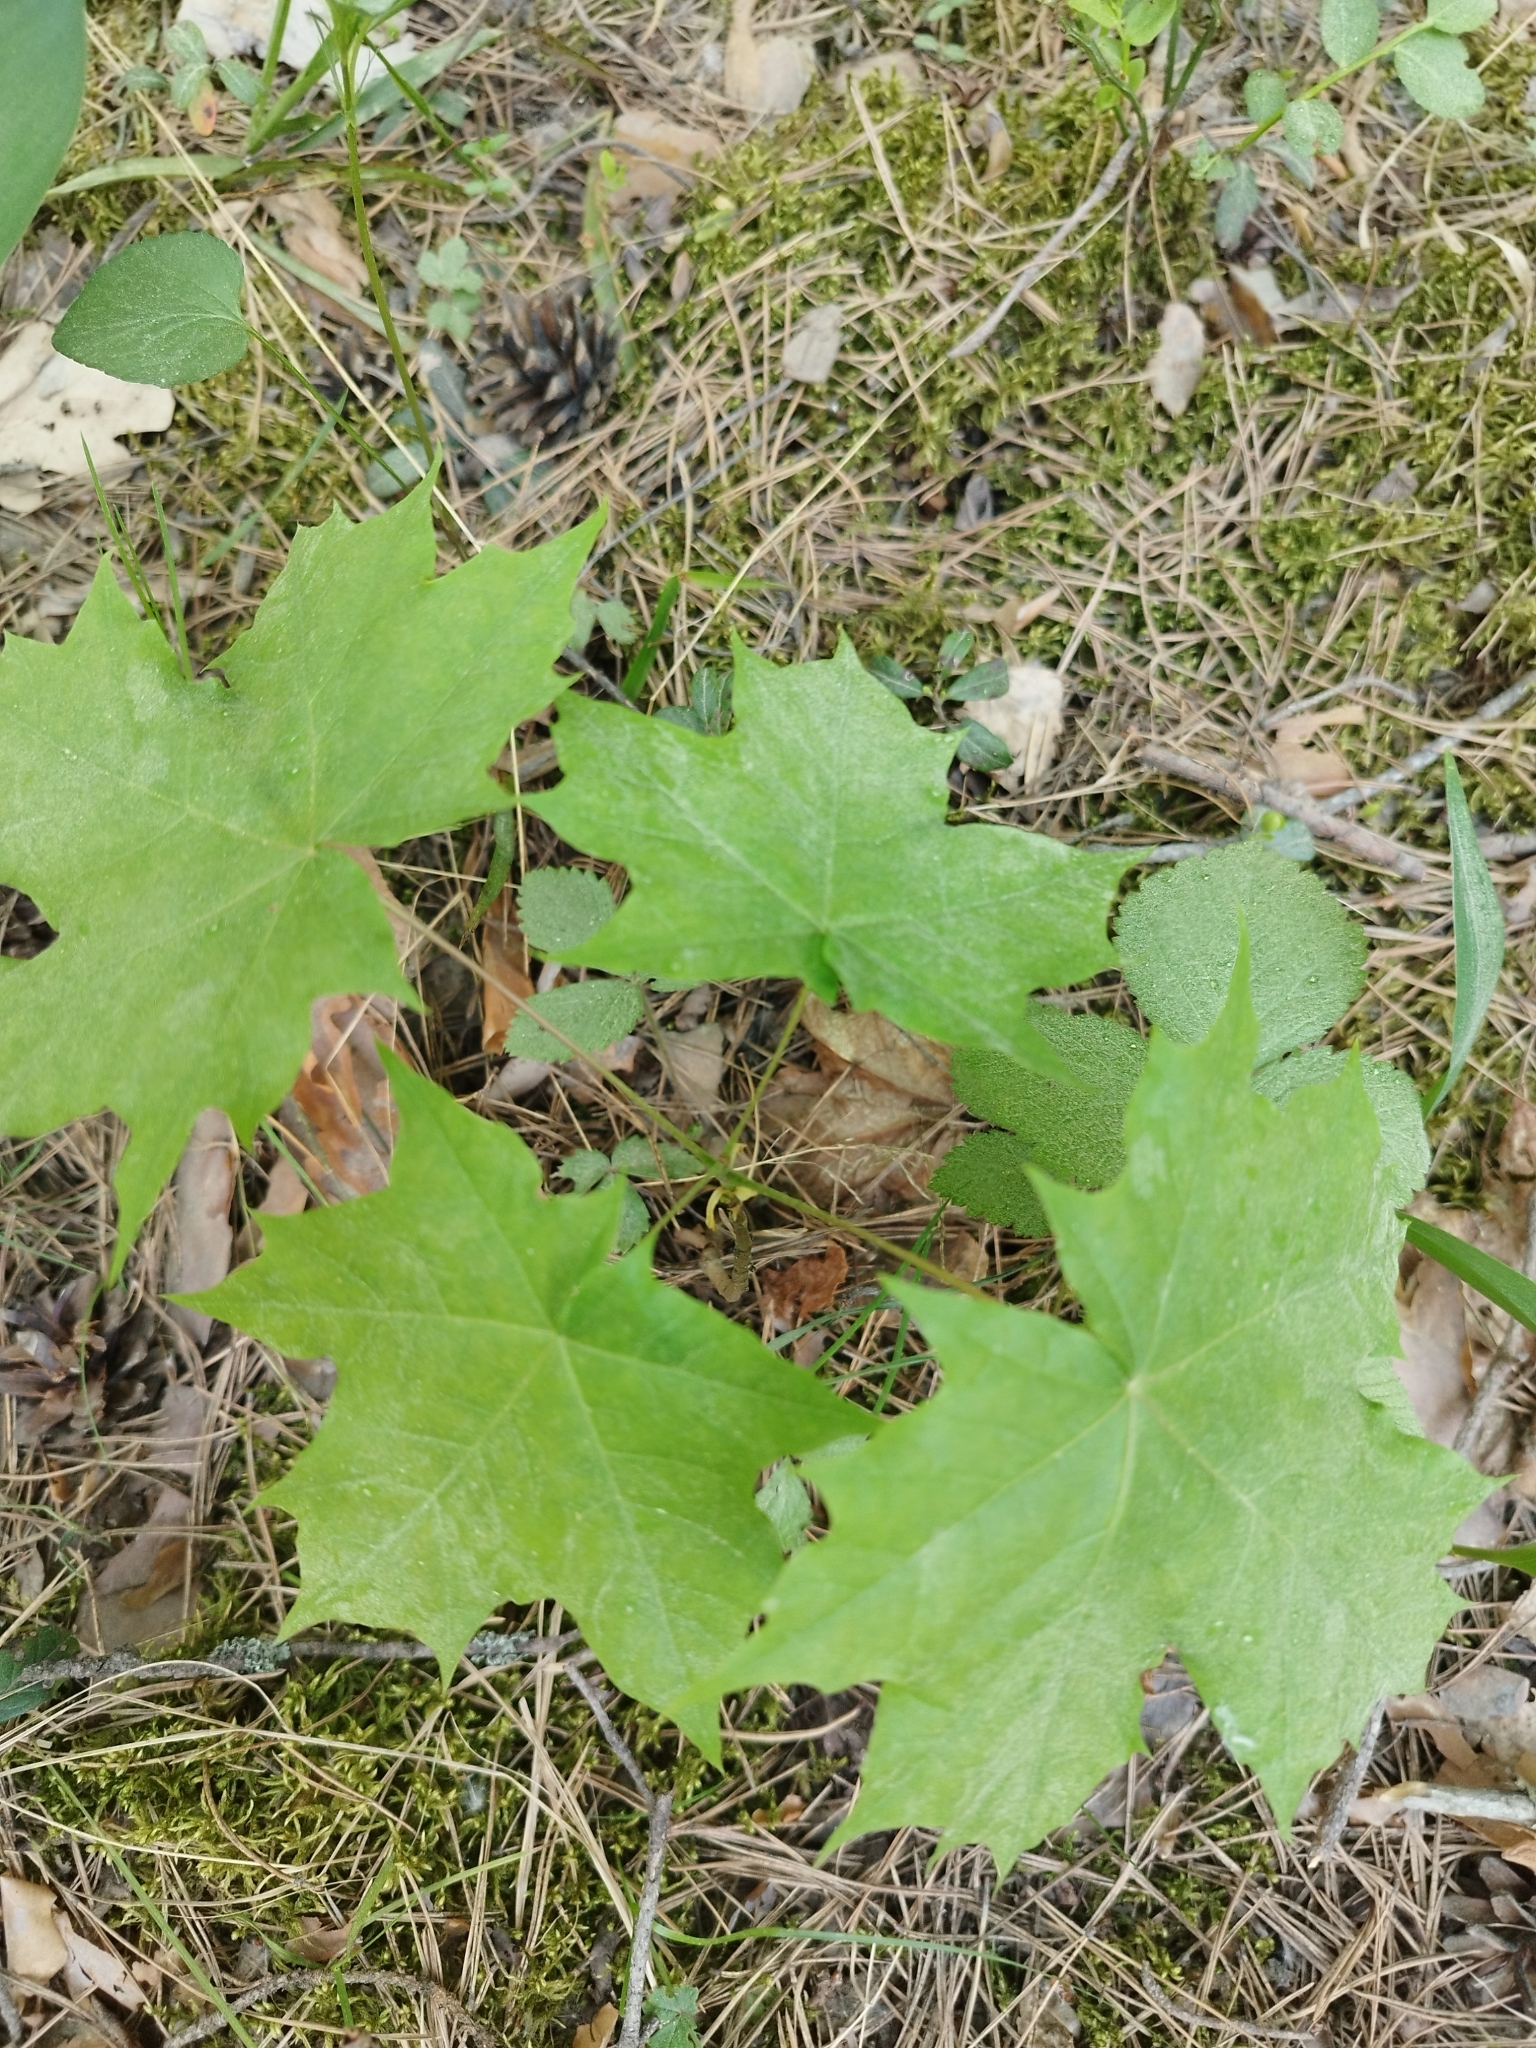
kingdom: Plantae
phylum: Tracheophyta
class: Magnoliopsida
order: Sapindales
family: Sapindaceae
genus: Acer
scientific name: Acer platanoides
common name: Norway maple
